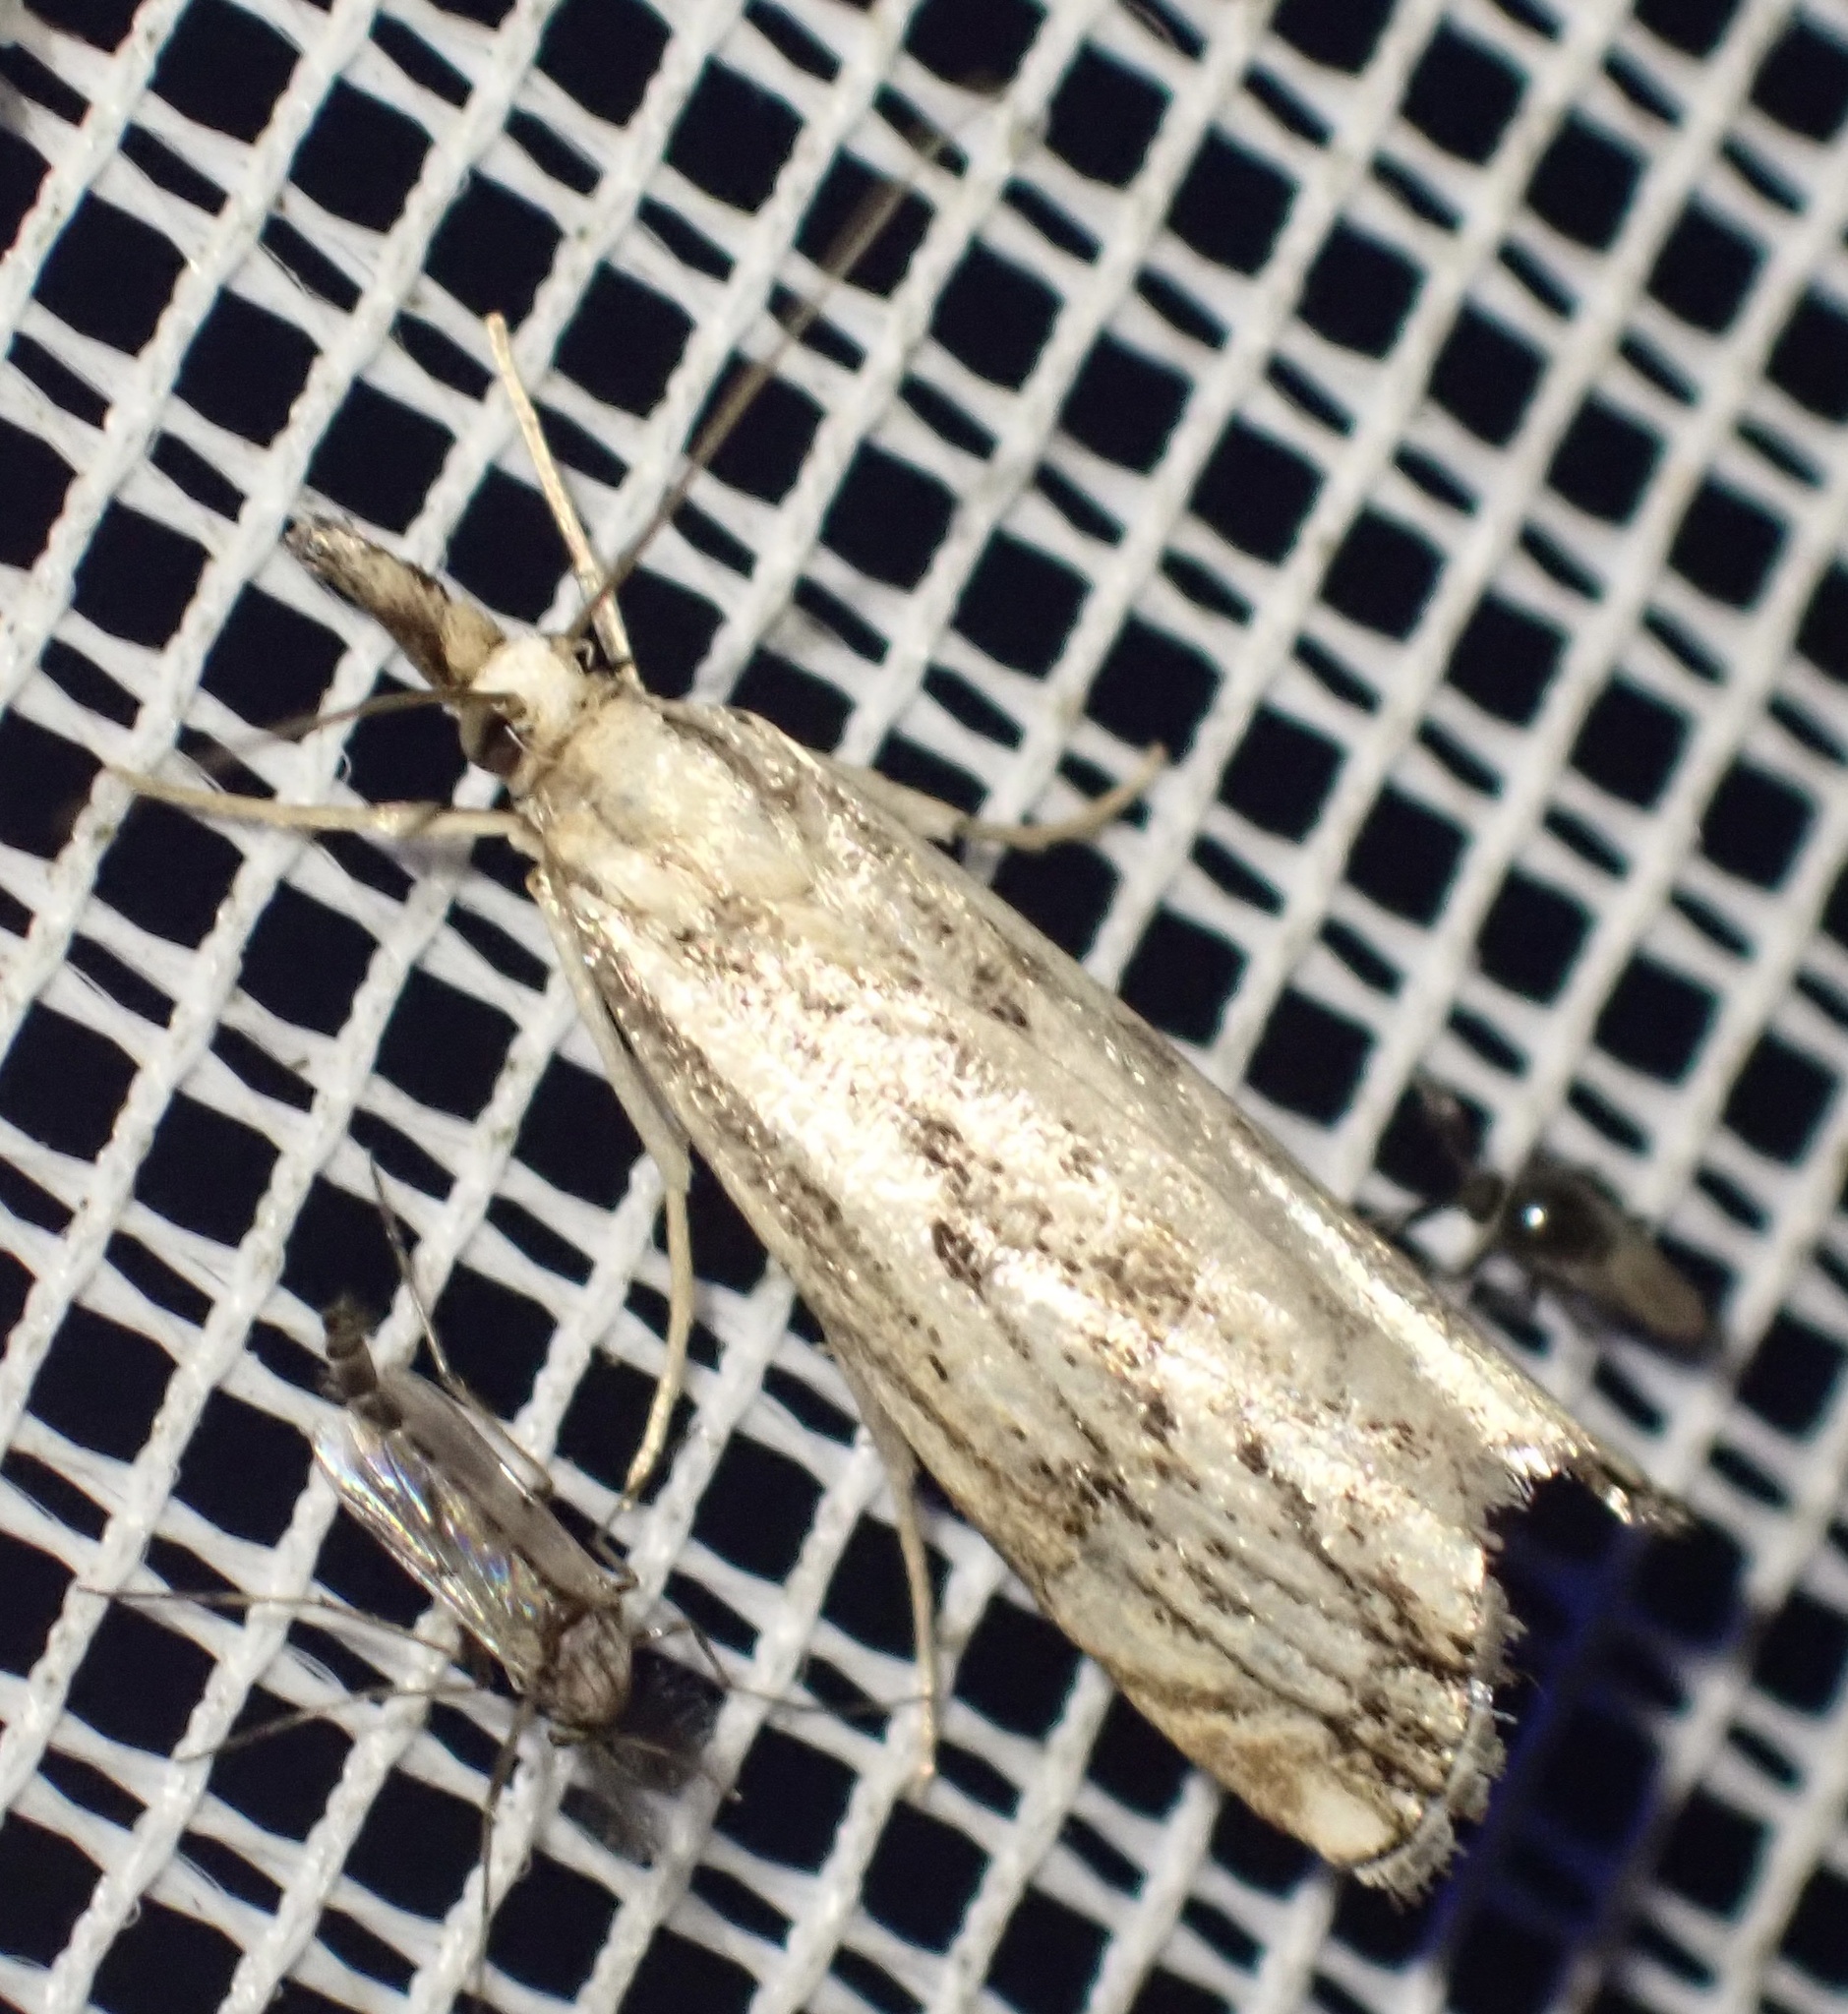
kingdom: Animalia
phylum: Arthropoda
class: Insecta
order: Lepidoptera
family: Crambidae
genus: Catoptria
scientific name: Catoptria falsella
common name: Chequered grass-veneer
